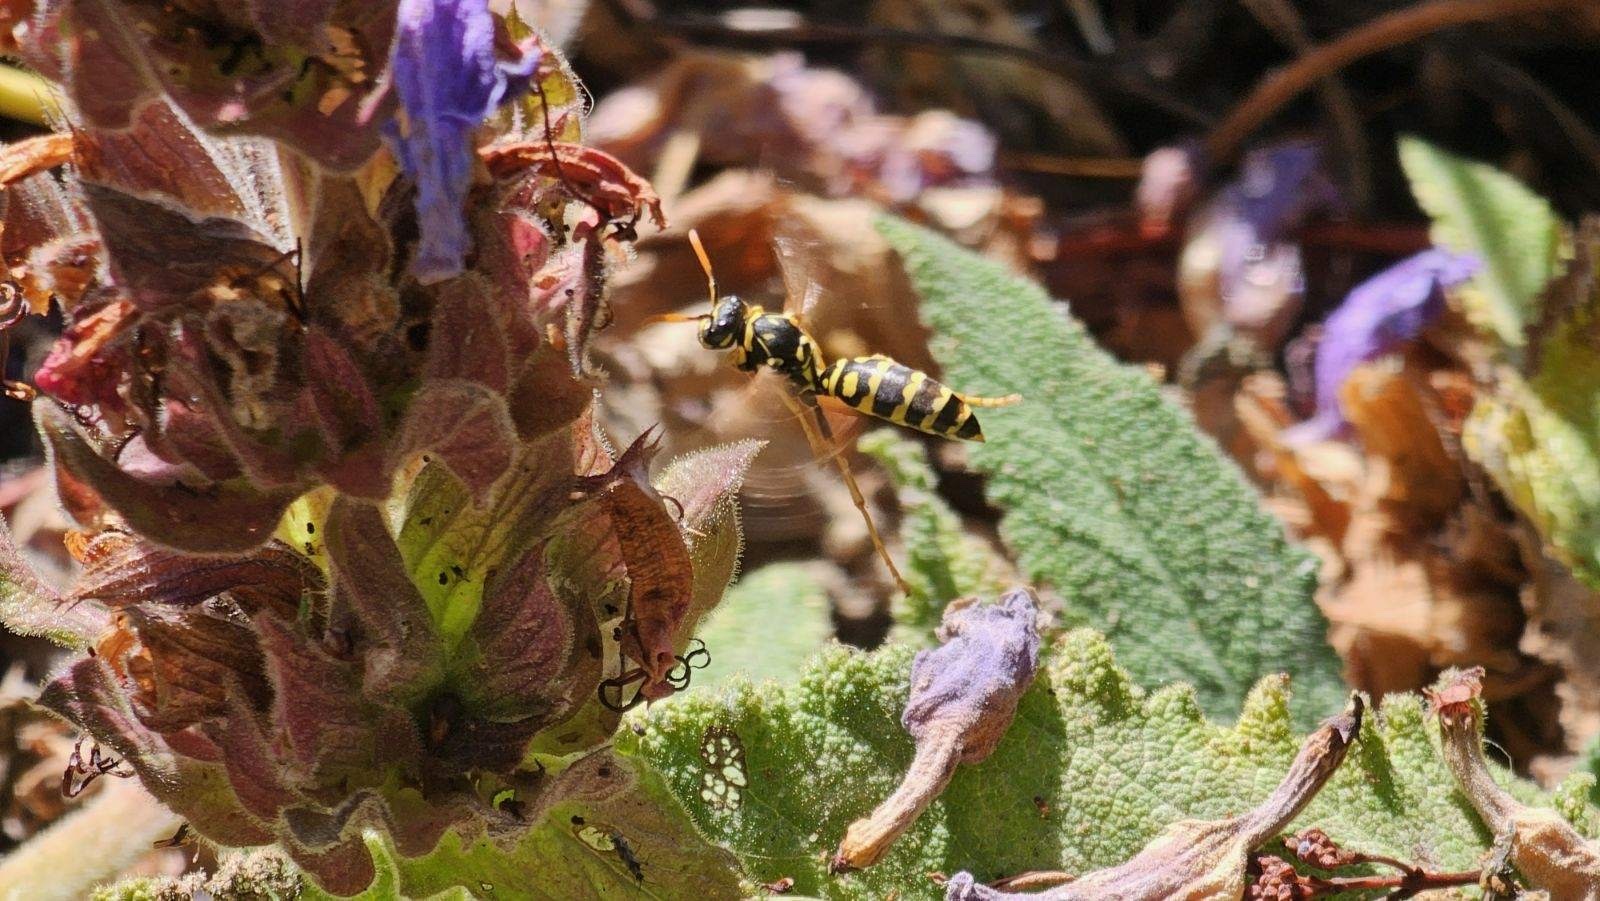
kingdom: Animalia
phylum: Arthropoda
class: Insecta
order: Hymenoptera
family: Eumenidae
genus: Polistes
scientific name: Polistes dominula
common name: Paper wasp
